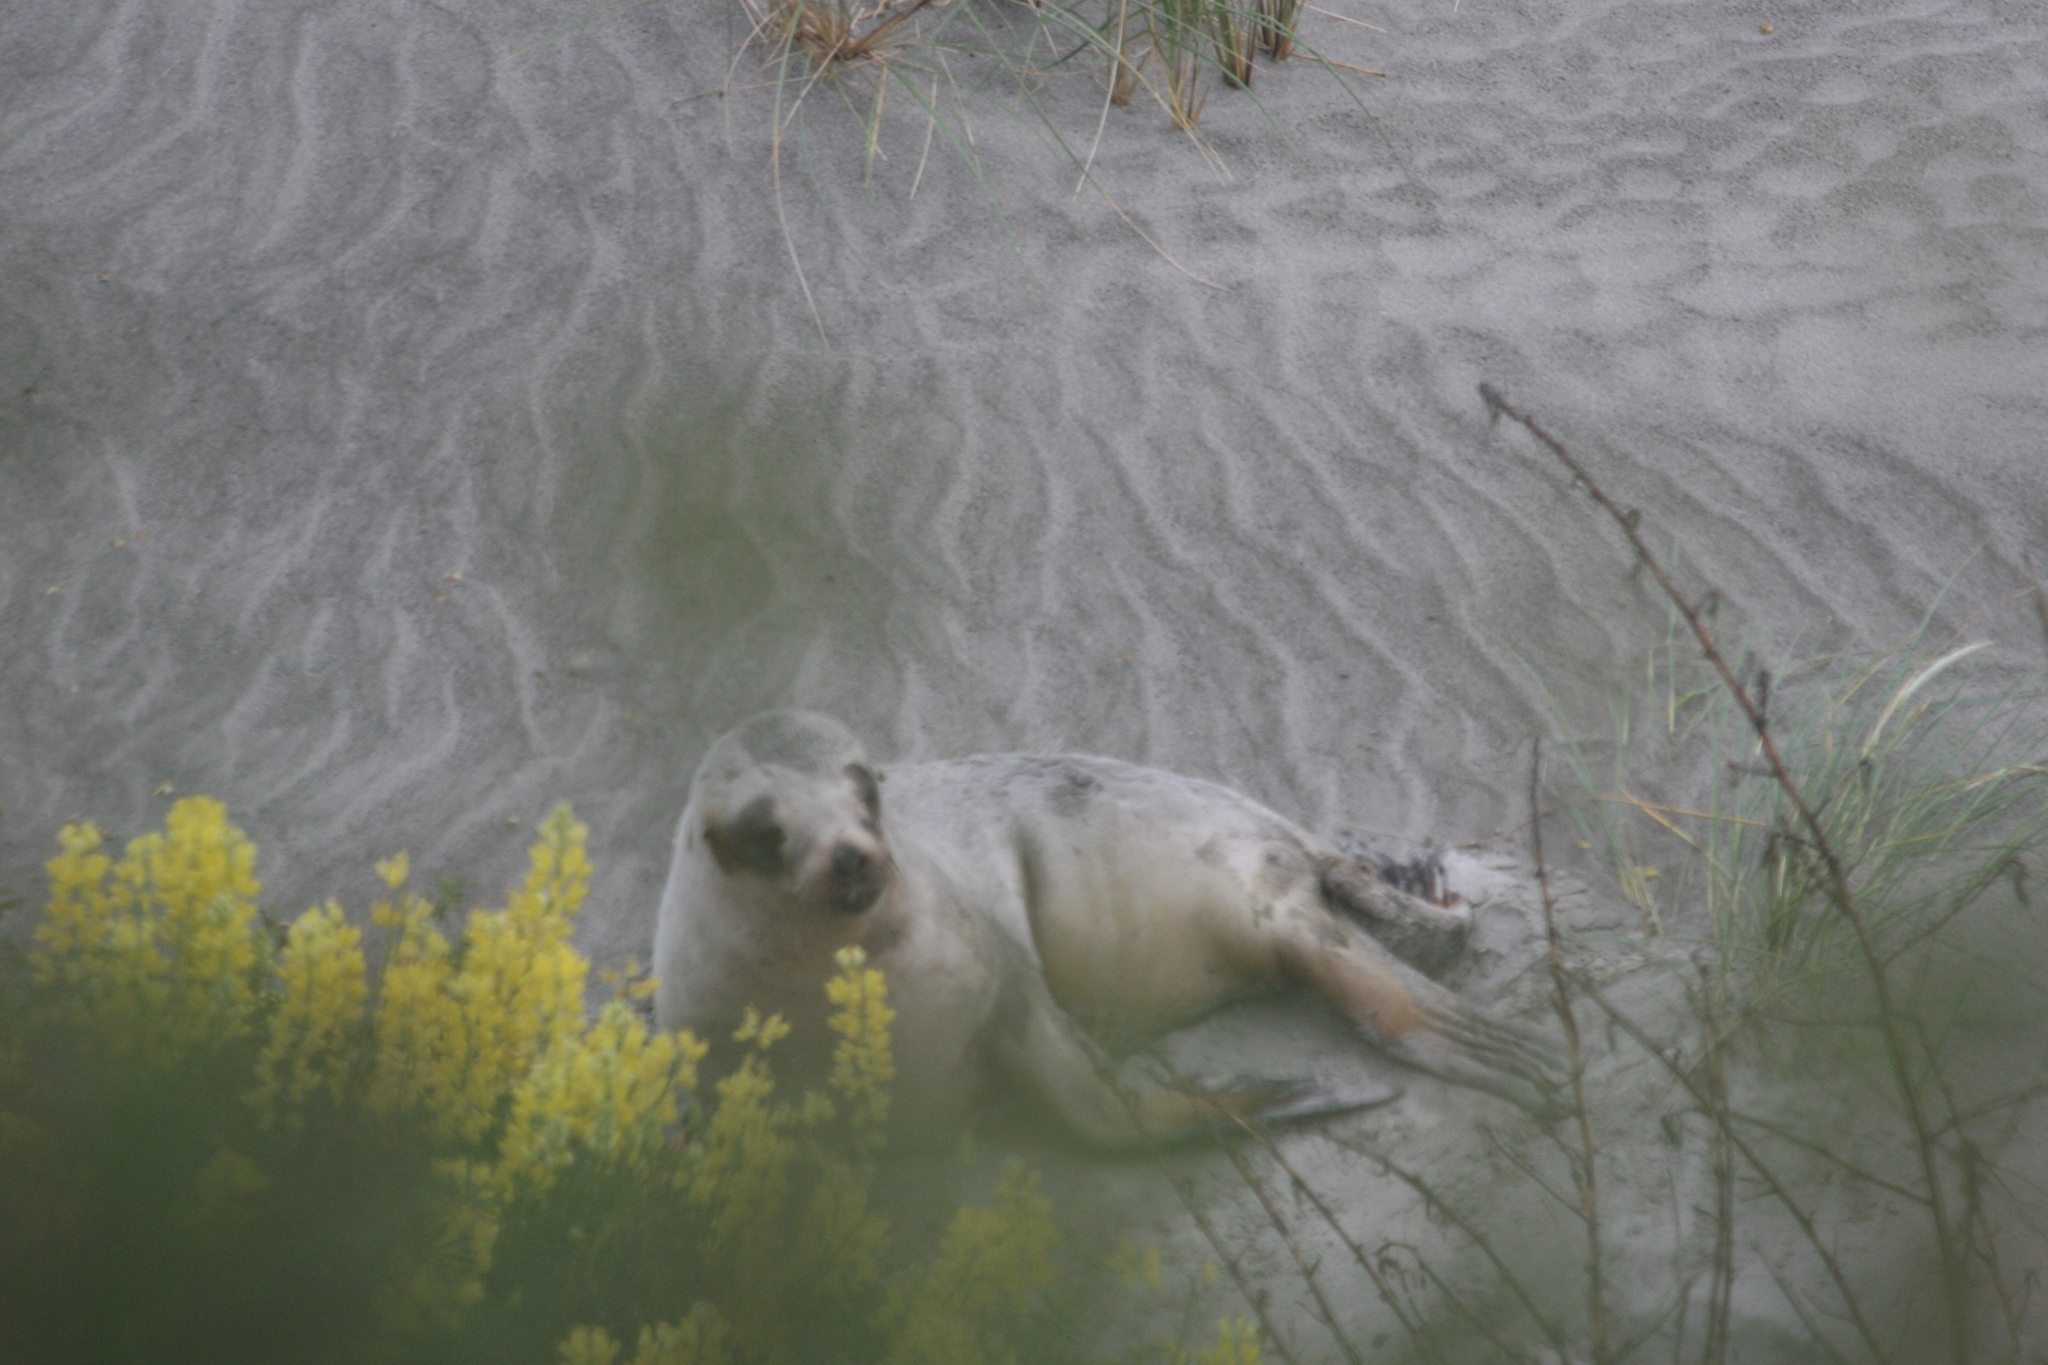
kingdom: Animalia
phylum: Chordata
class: Mammalia
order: Carnivora
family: Otariidae
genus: Phocarctos
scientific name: Phocarctos hookeri
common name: New zealand sea lion
